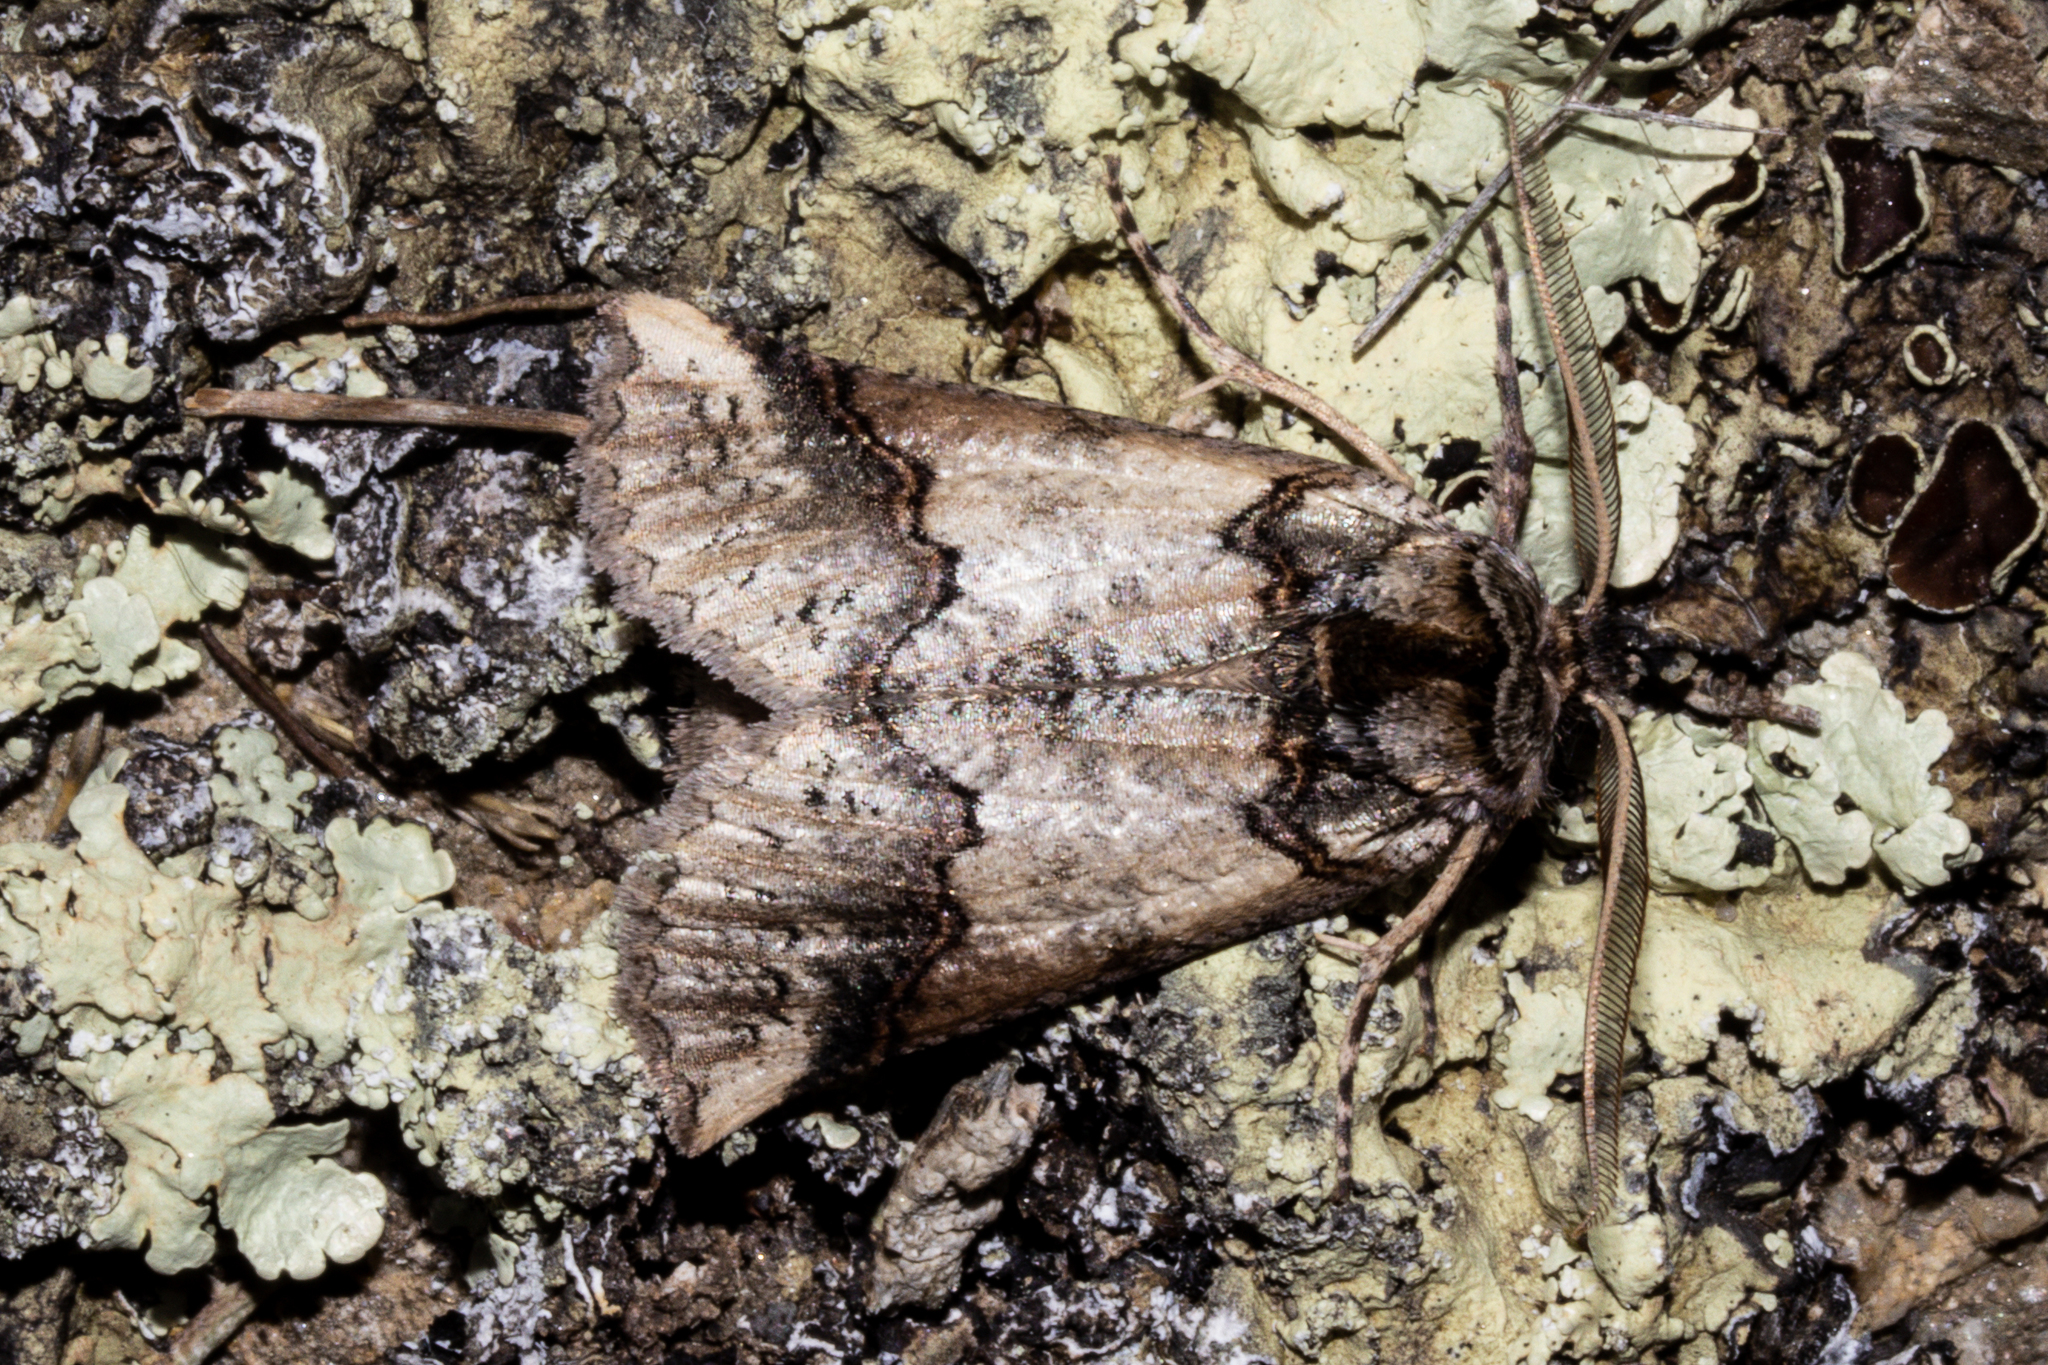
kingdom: Animalia
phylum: Arthropoda
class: Insecta
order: Lepidoptera
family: Geometridae
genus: Declana
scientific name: Declana
